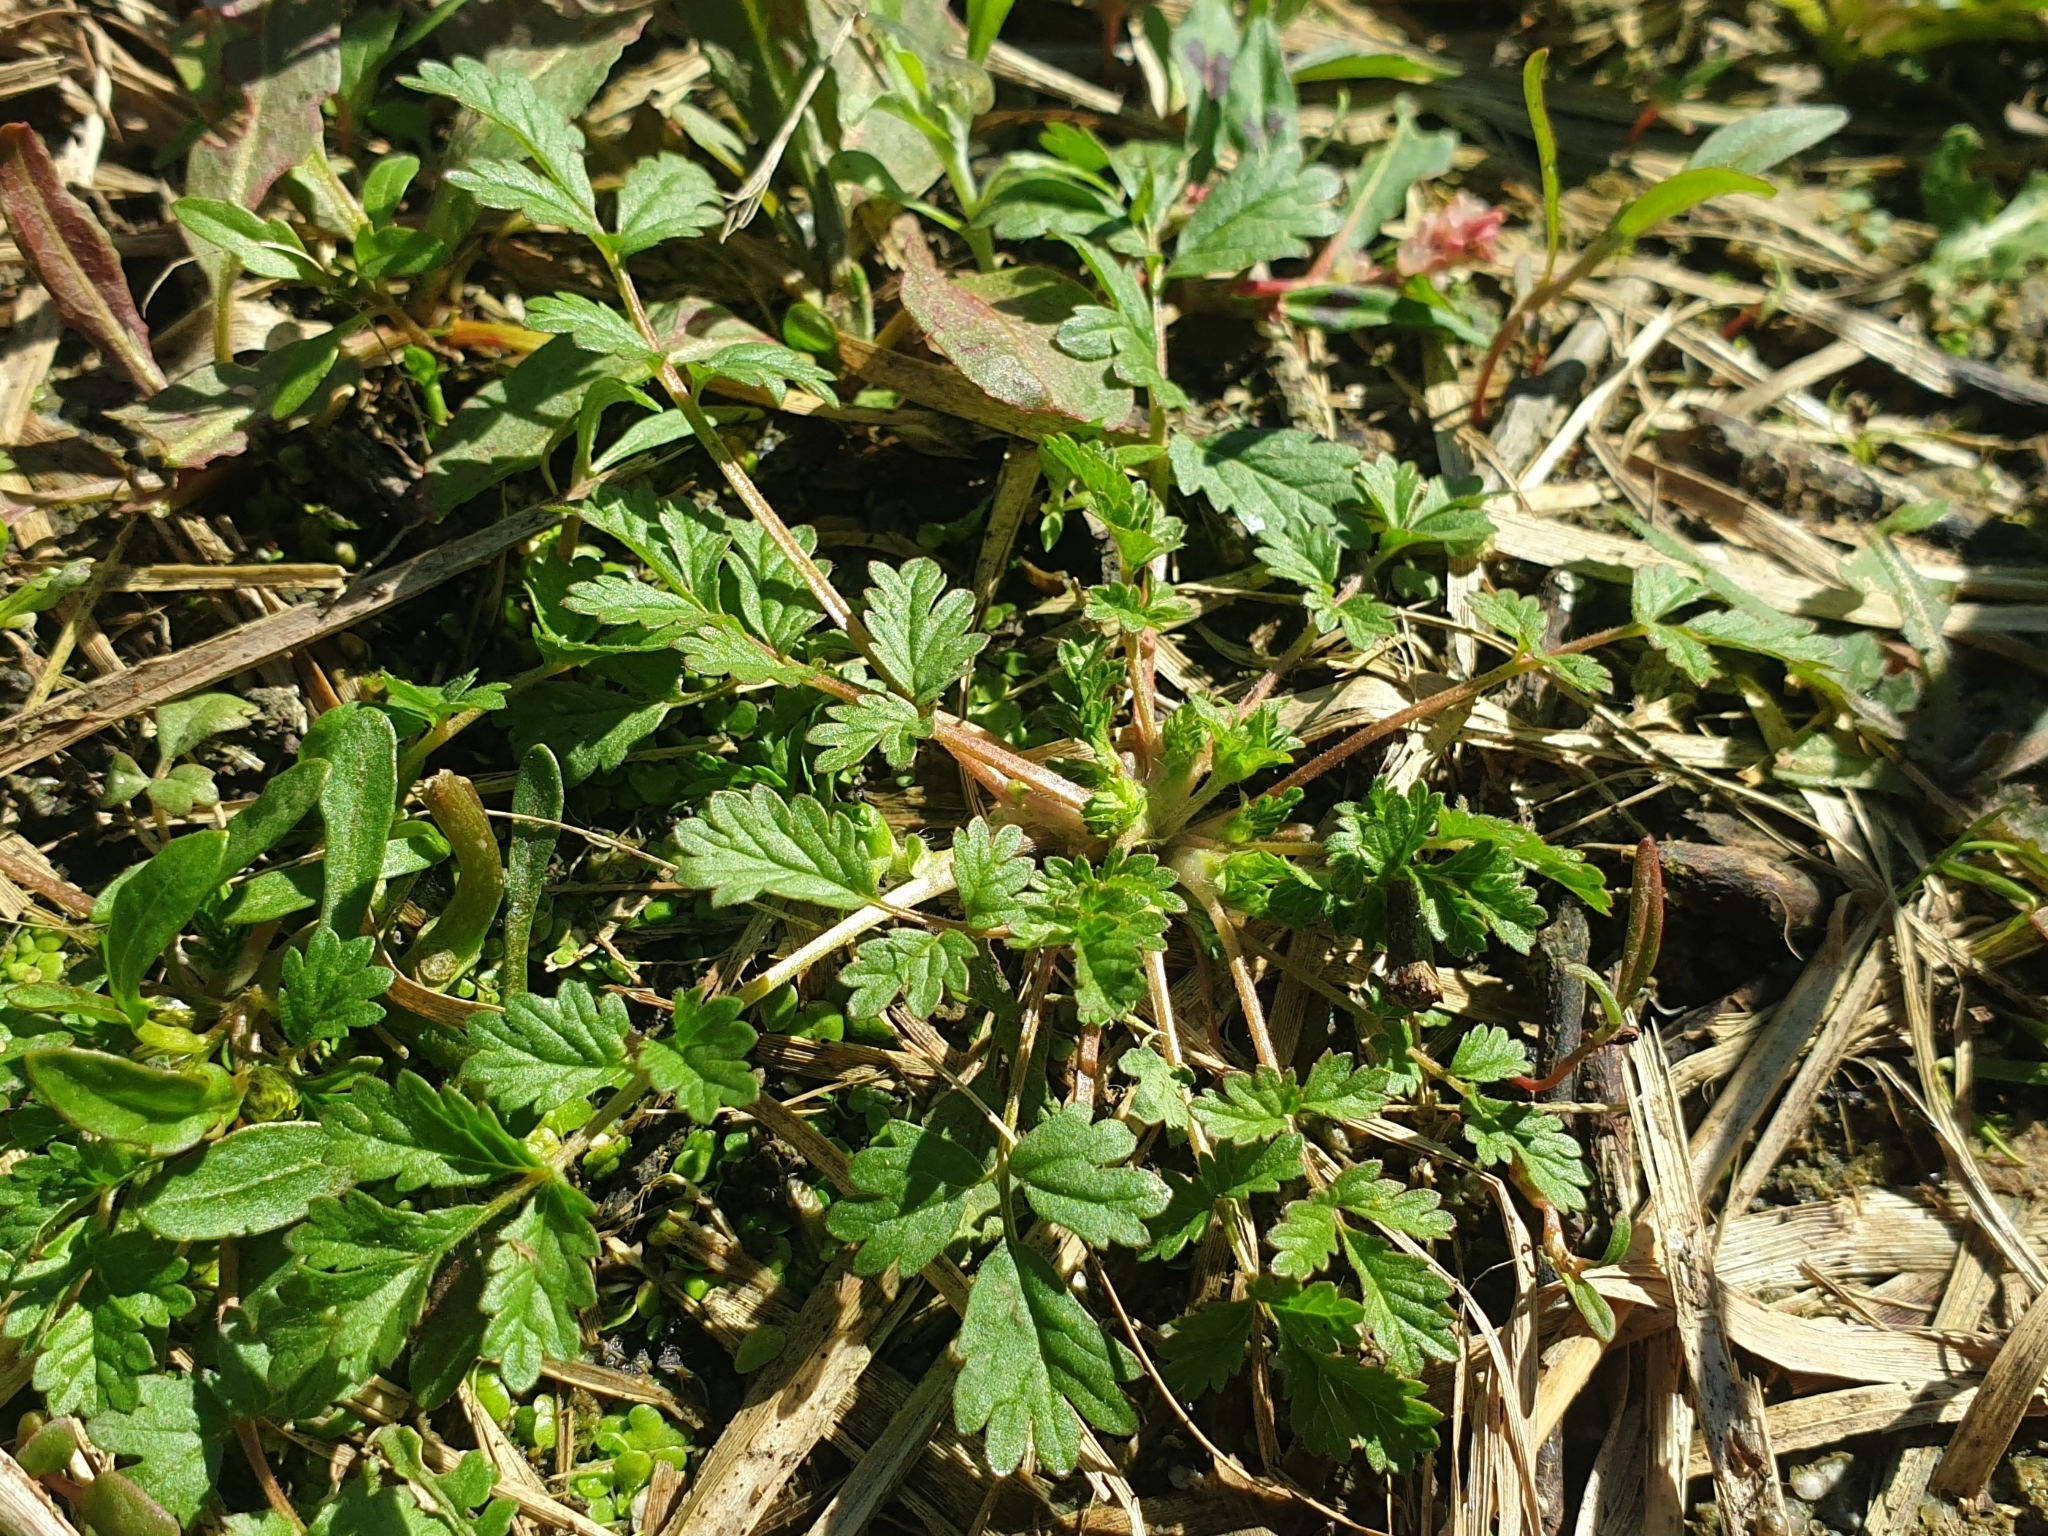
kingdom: Plantae
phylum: Tracheophyta
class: Magnoliopsida
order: Rosales
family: Rosaceae
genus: Potentilla
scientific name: Potentilla supina
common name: Prostrate cinquefoil
